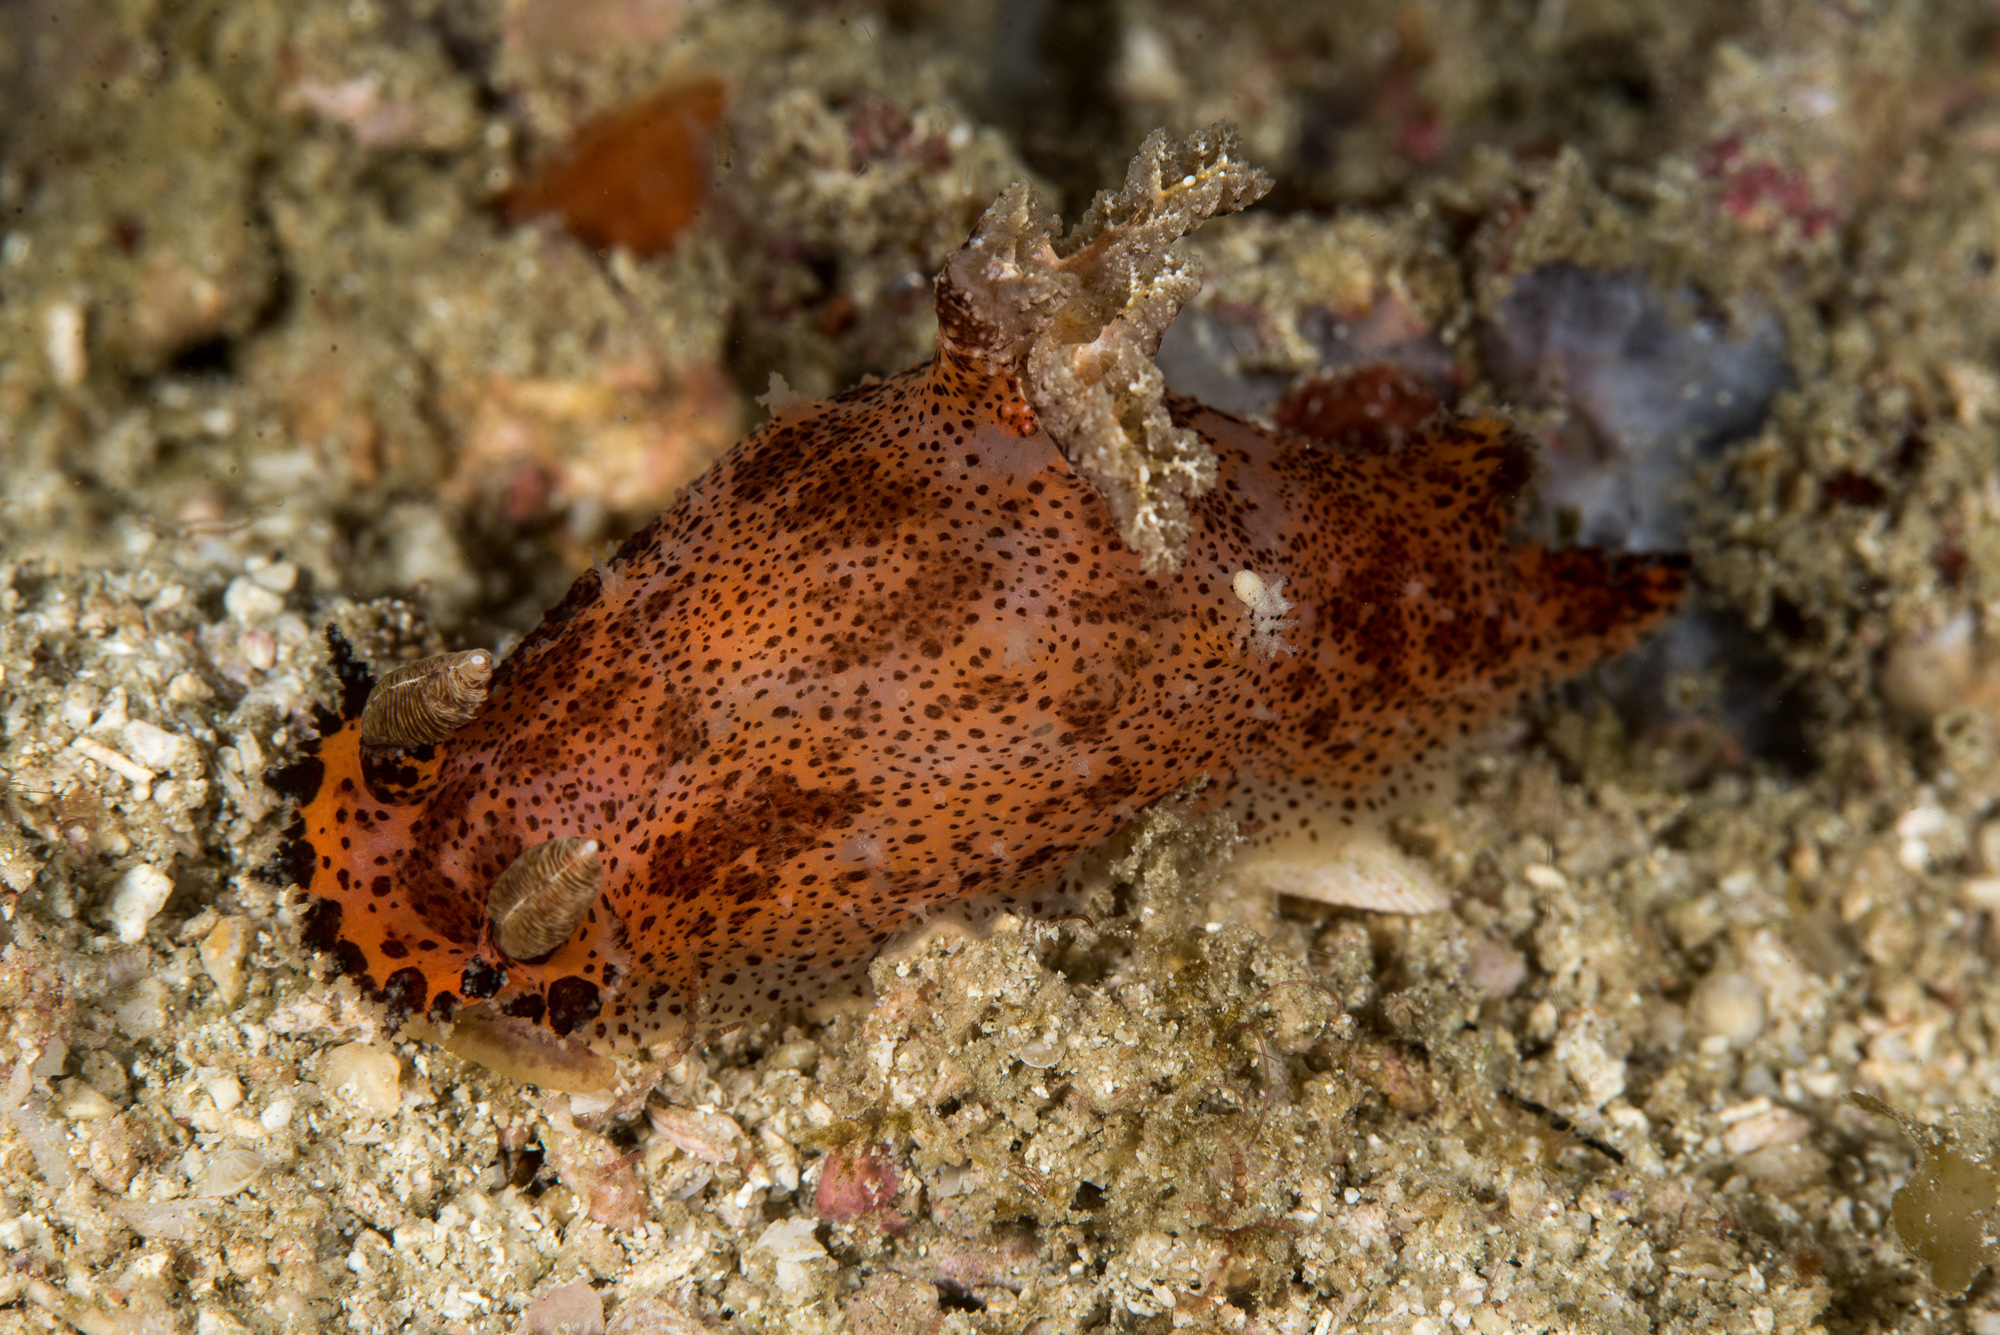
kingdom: Animalia
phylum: Mollusca
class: Gastropoda
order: Nudibranchia
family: Polyceridae
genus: Plocamopherus
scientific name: Plocamopherus tilesii
